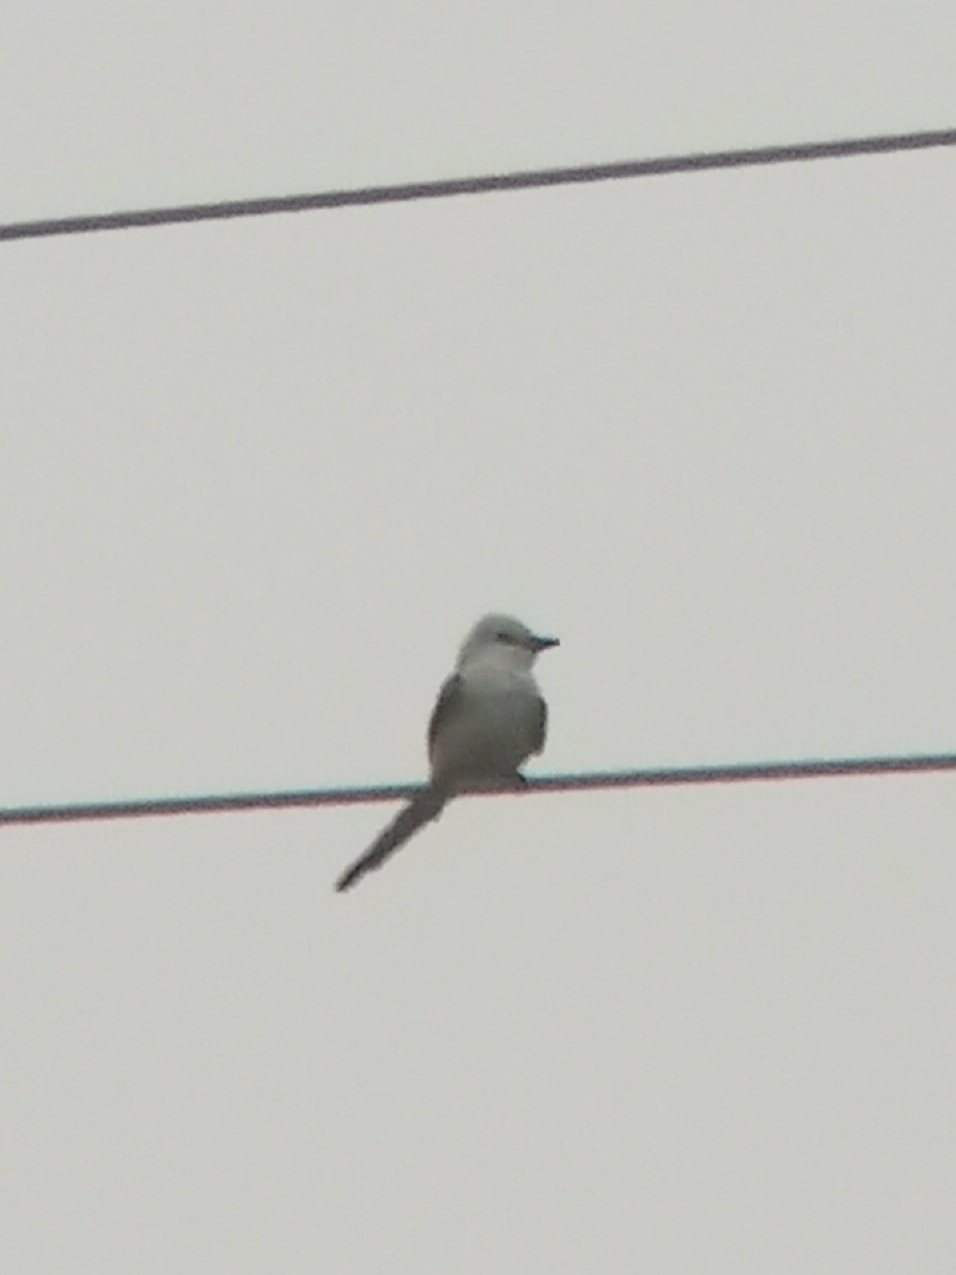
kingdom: Animalia
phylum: Chordata
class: Aves
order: Passeriformes
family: Tyrannidae
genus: Tyrannus
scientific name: Tyrannus forficatus
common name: Scissor-tailed flycatcher
